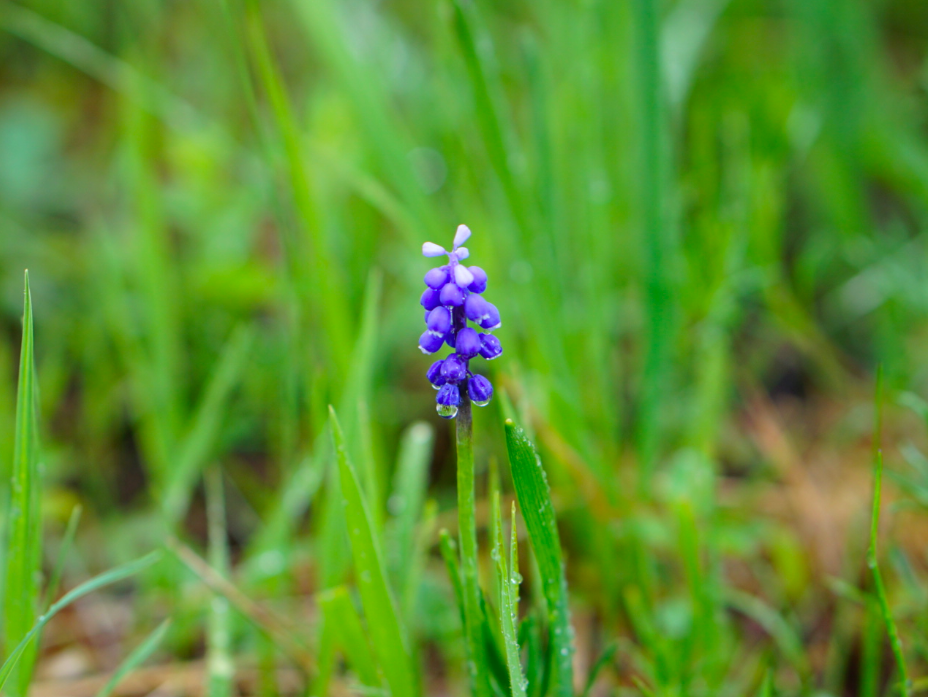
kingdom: Plantae
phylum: Tracheophyta
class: Liliopsida
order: Asparagales
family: Asparagaceae
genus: Muscari
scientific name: Muscari botryoides
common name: Compact grape-hyacinth
